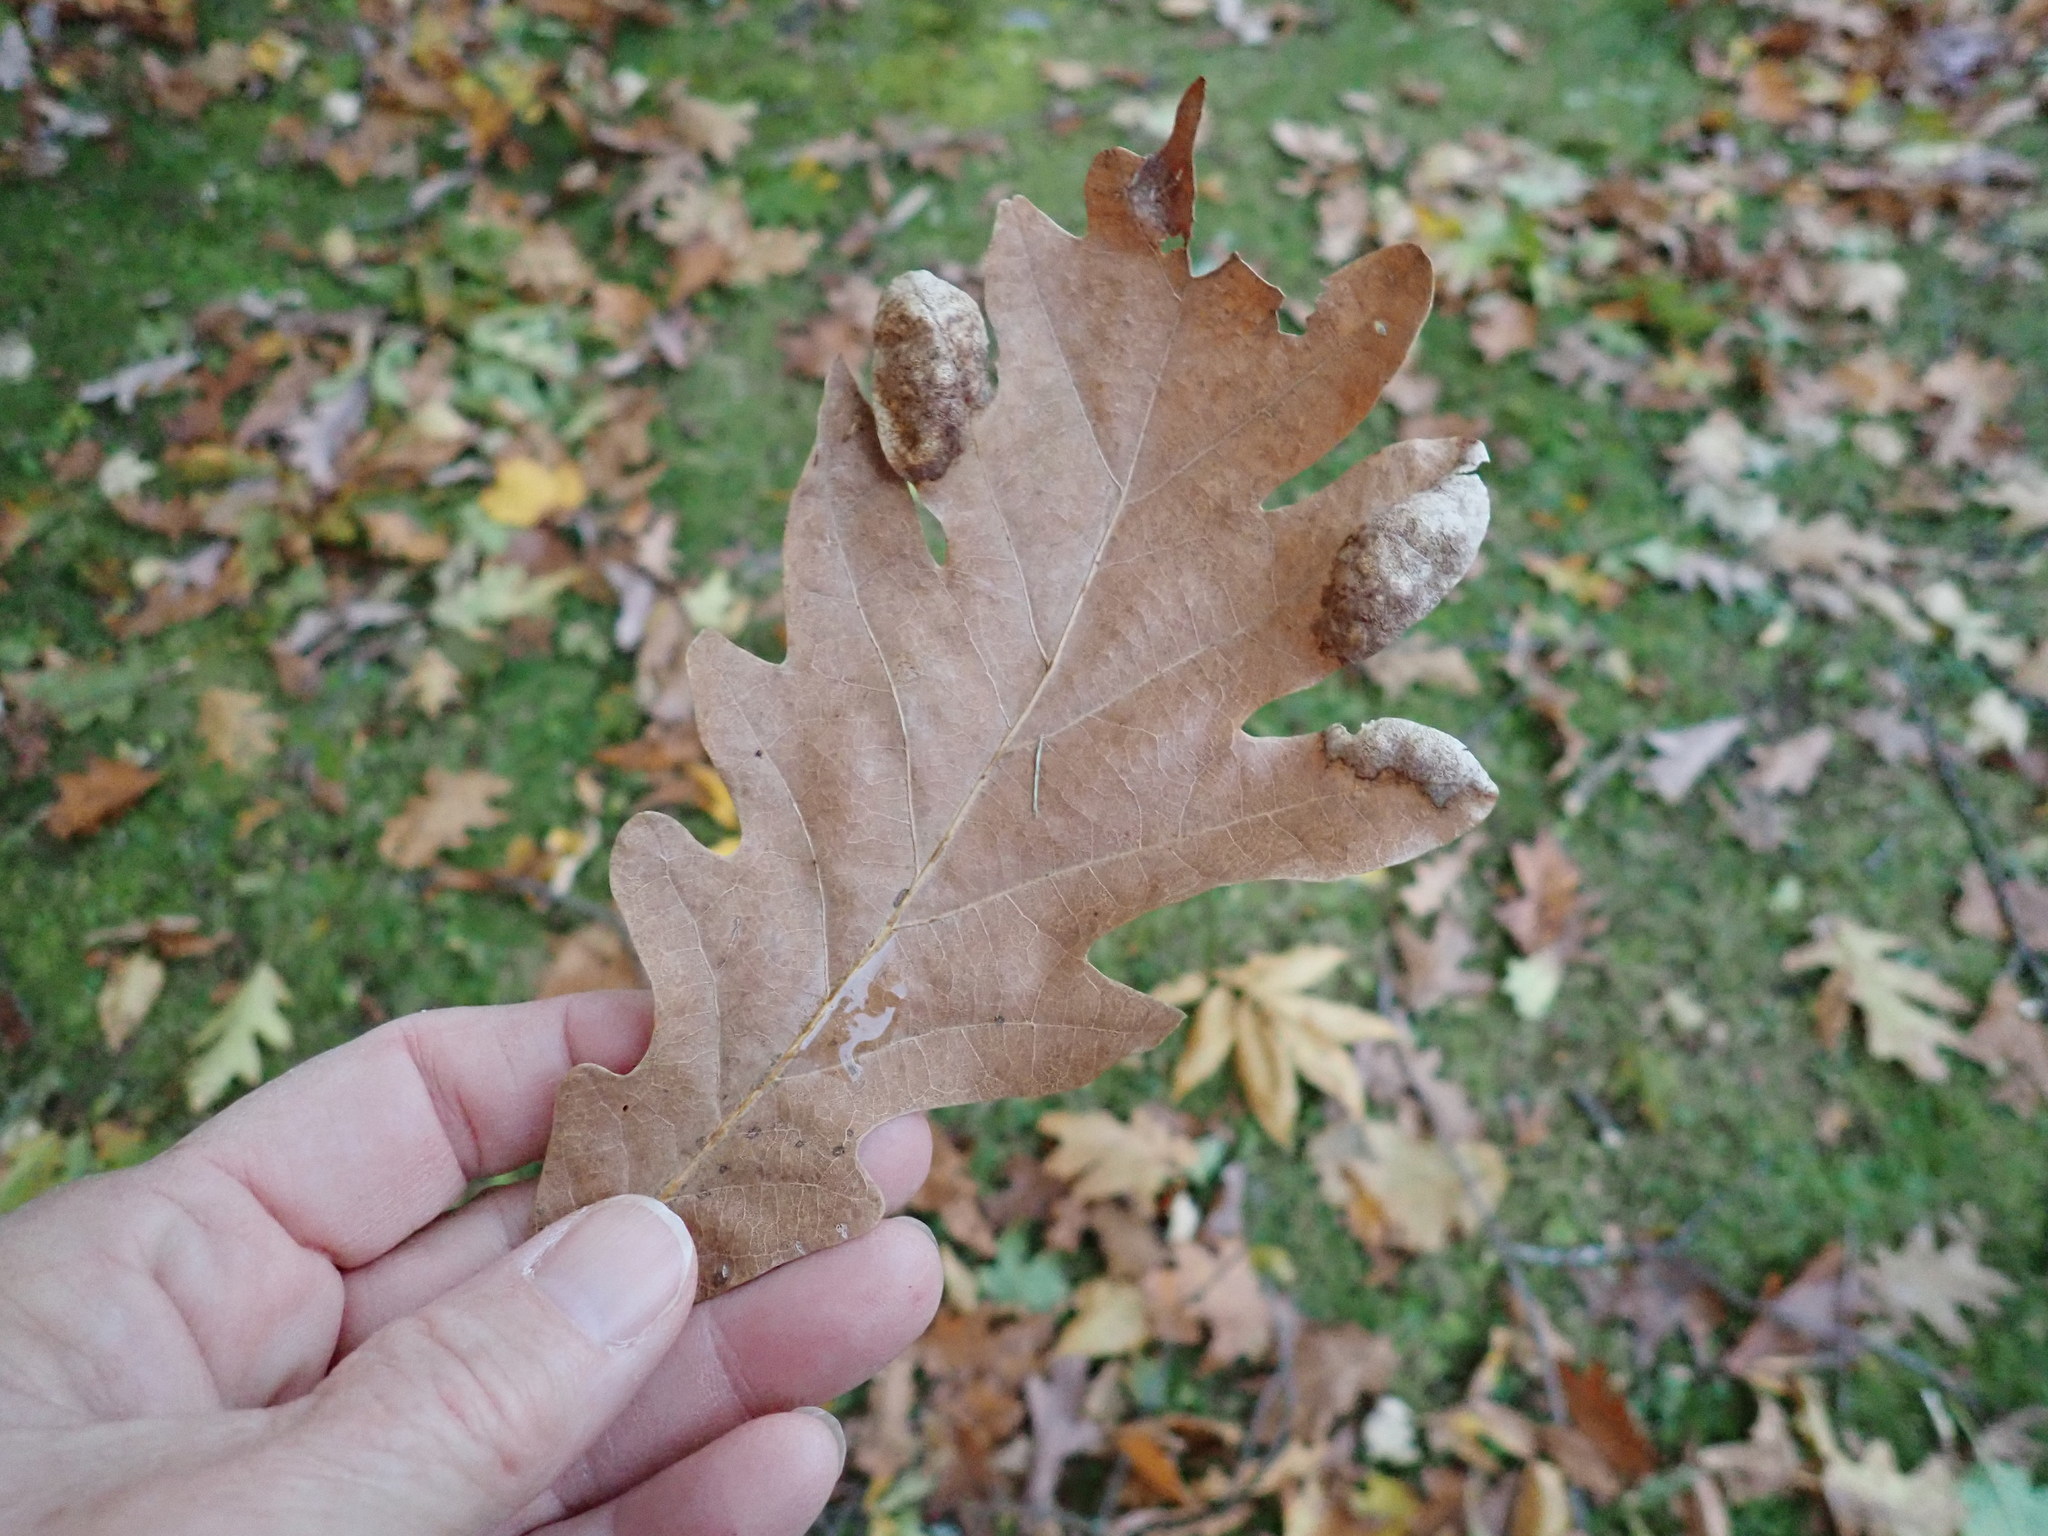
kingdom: Plantae
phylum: Tracheophyta
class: Magnoliopsida
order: Fagales
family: Fagaceae
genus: Quercus
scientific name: Quercus alba
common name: White oak
